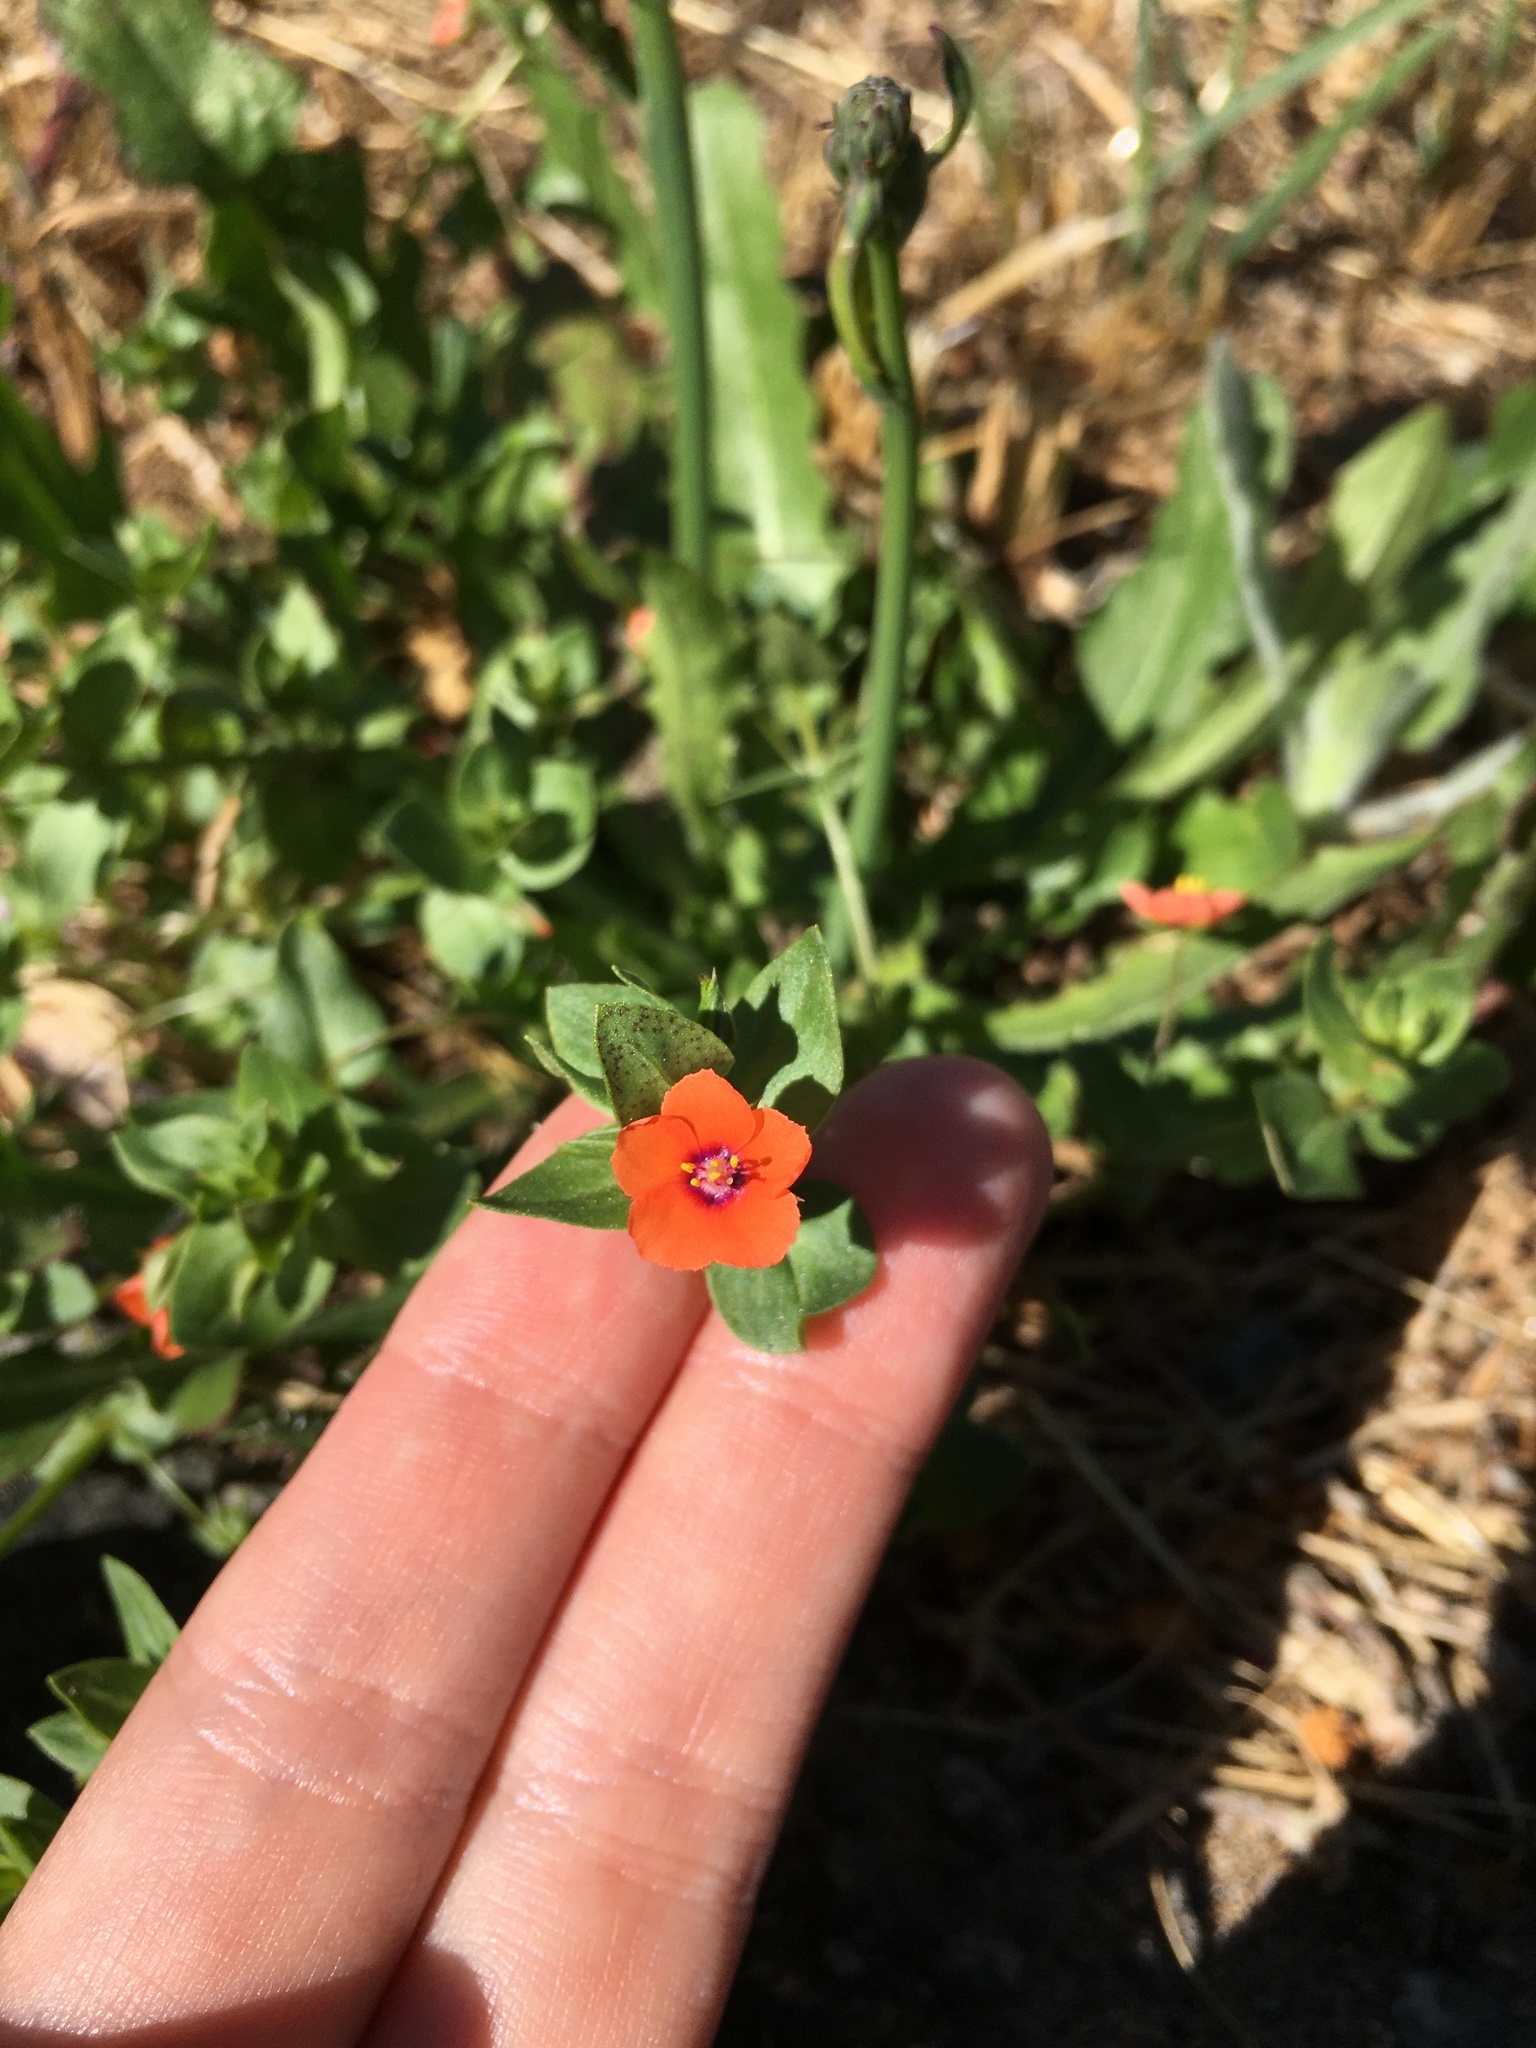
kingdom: Plantae
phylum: Tracheophyta
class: Magnoliopsida
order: Ericales
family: Primulaceae
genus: Lysimachia
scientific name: Lysimachia arvensis
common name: Scarlet pimpernel
